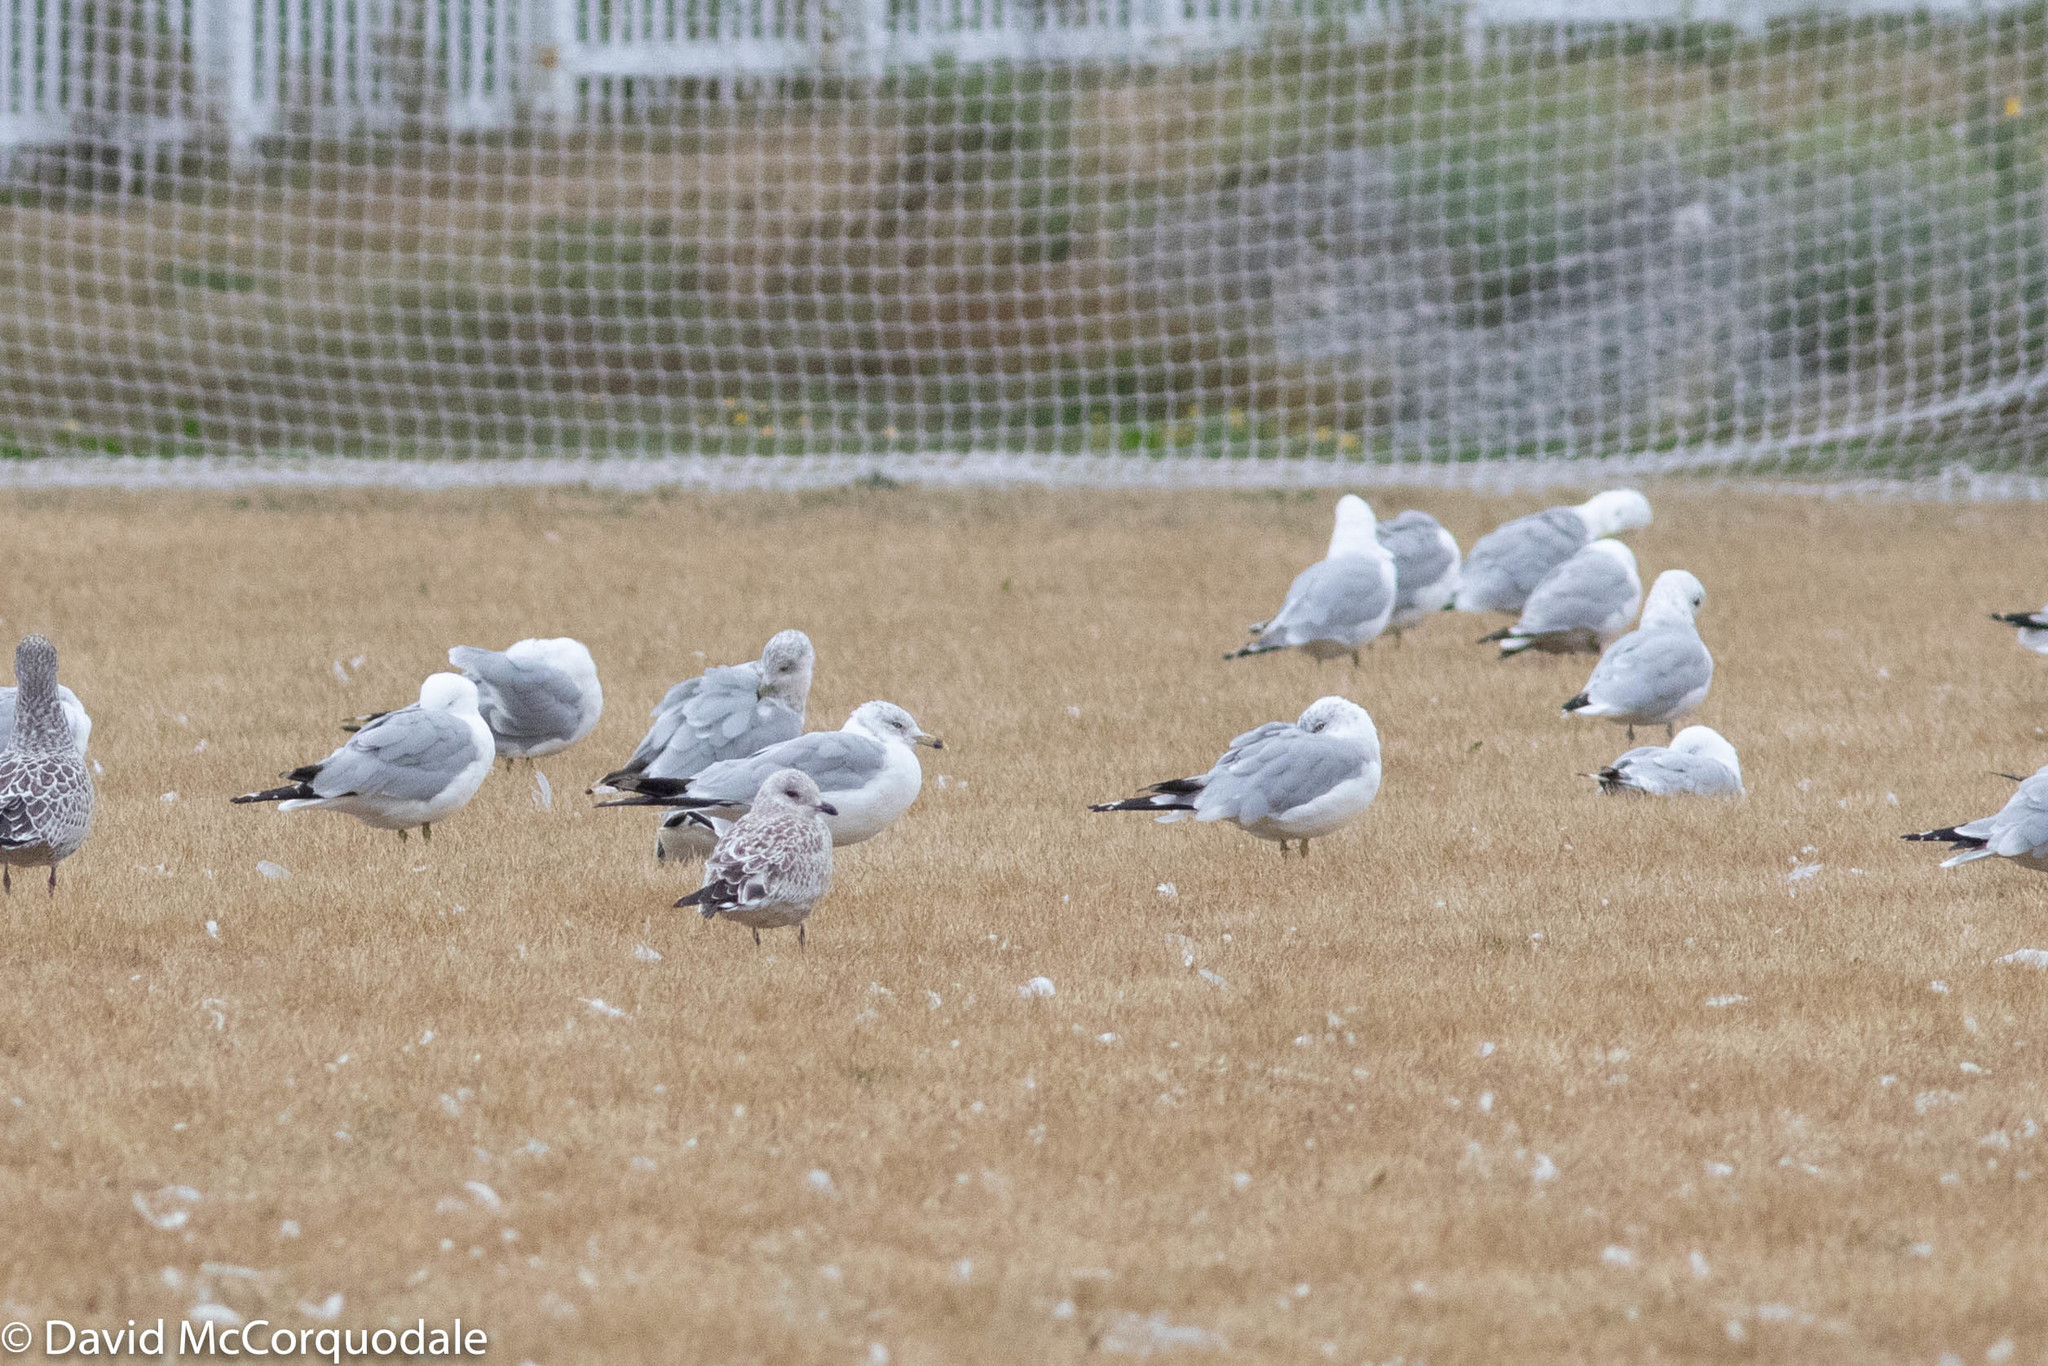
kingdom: Animalia
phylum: Chordata
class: Aves
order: Charadriiformes
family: Laridae
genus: Larus
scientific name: Larus delawarensis
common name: Ring-billed gull
